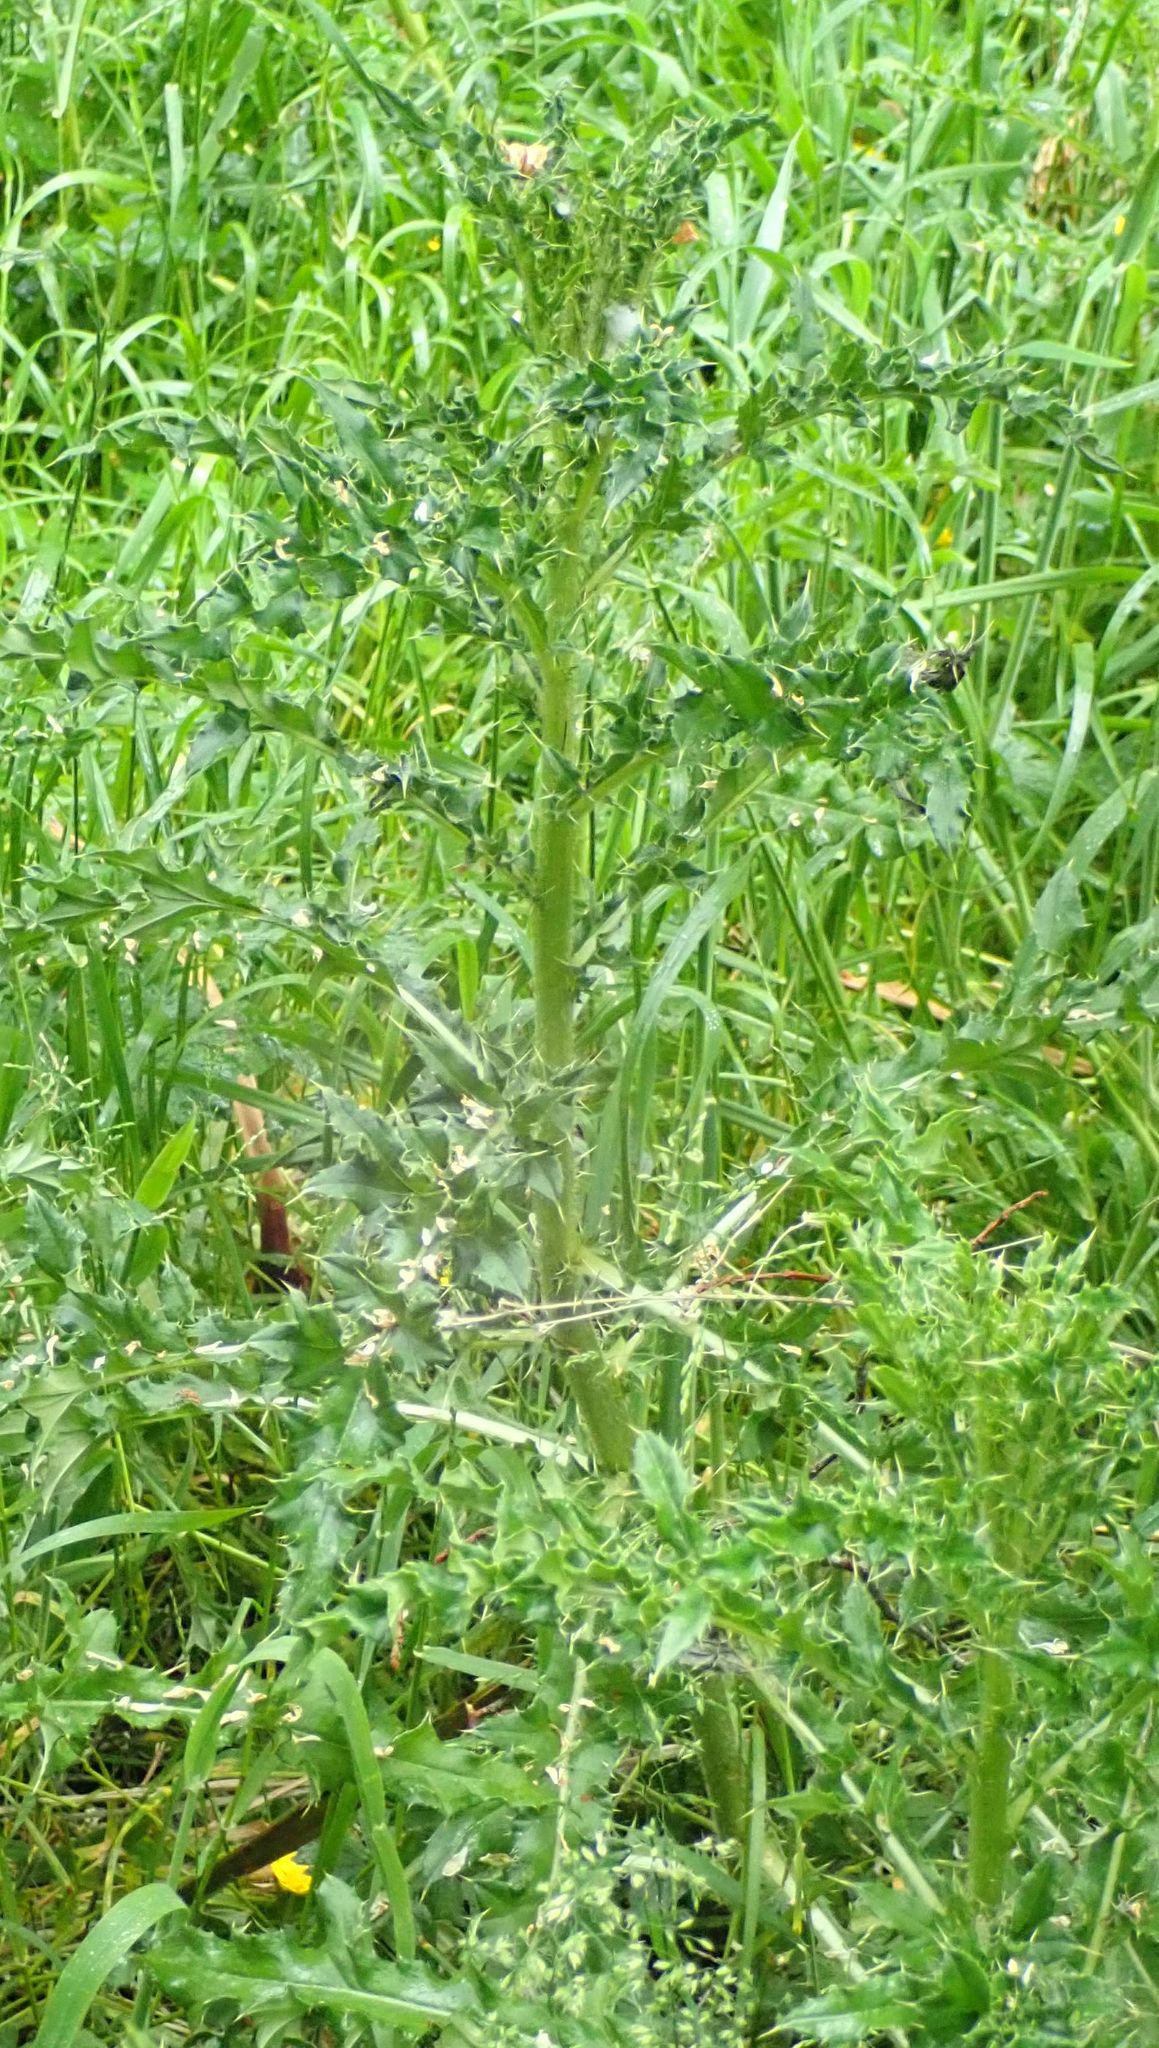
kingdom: Plantae
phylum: Tracheophyta
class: Magnoliopsida
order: Asterales
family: Asteraceae
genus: Cirsium
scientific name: Cirsium arvense
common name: Creeping thistle
